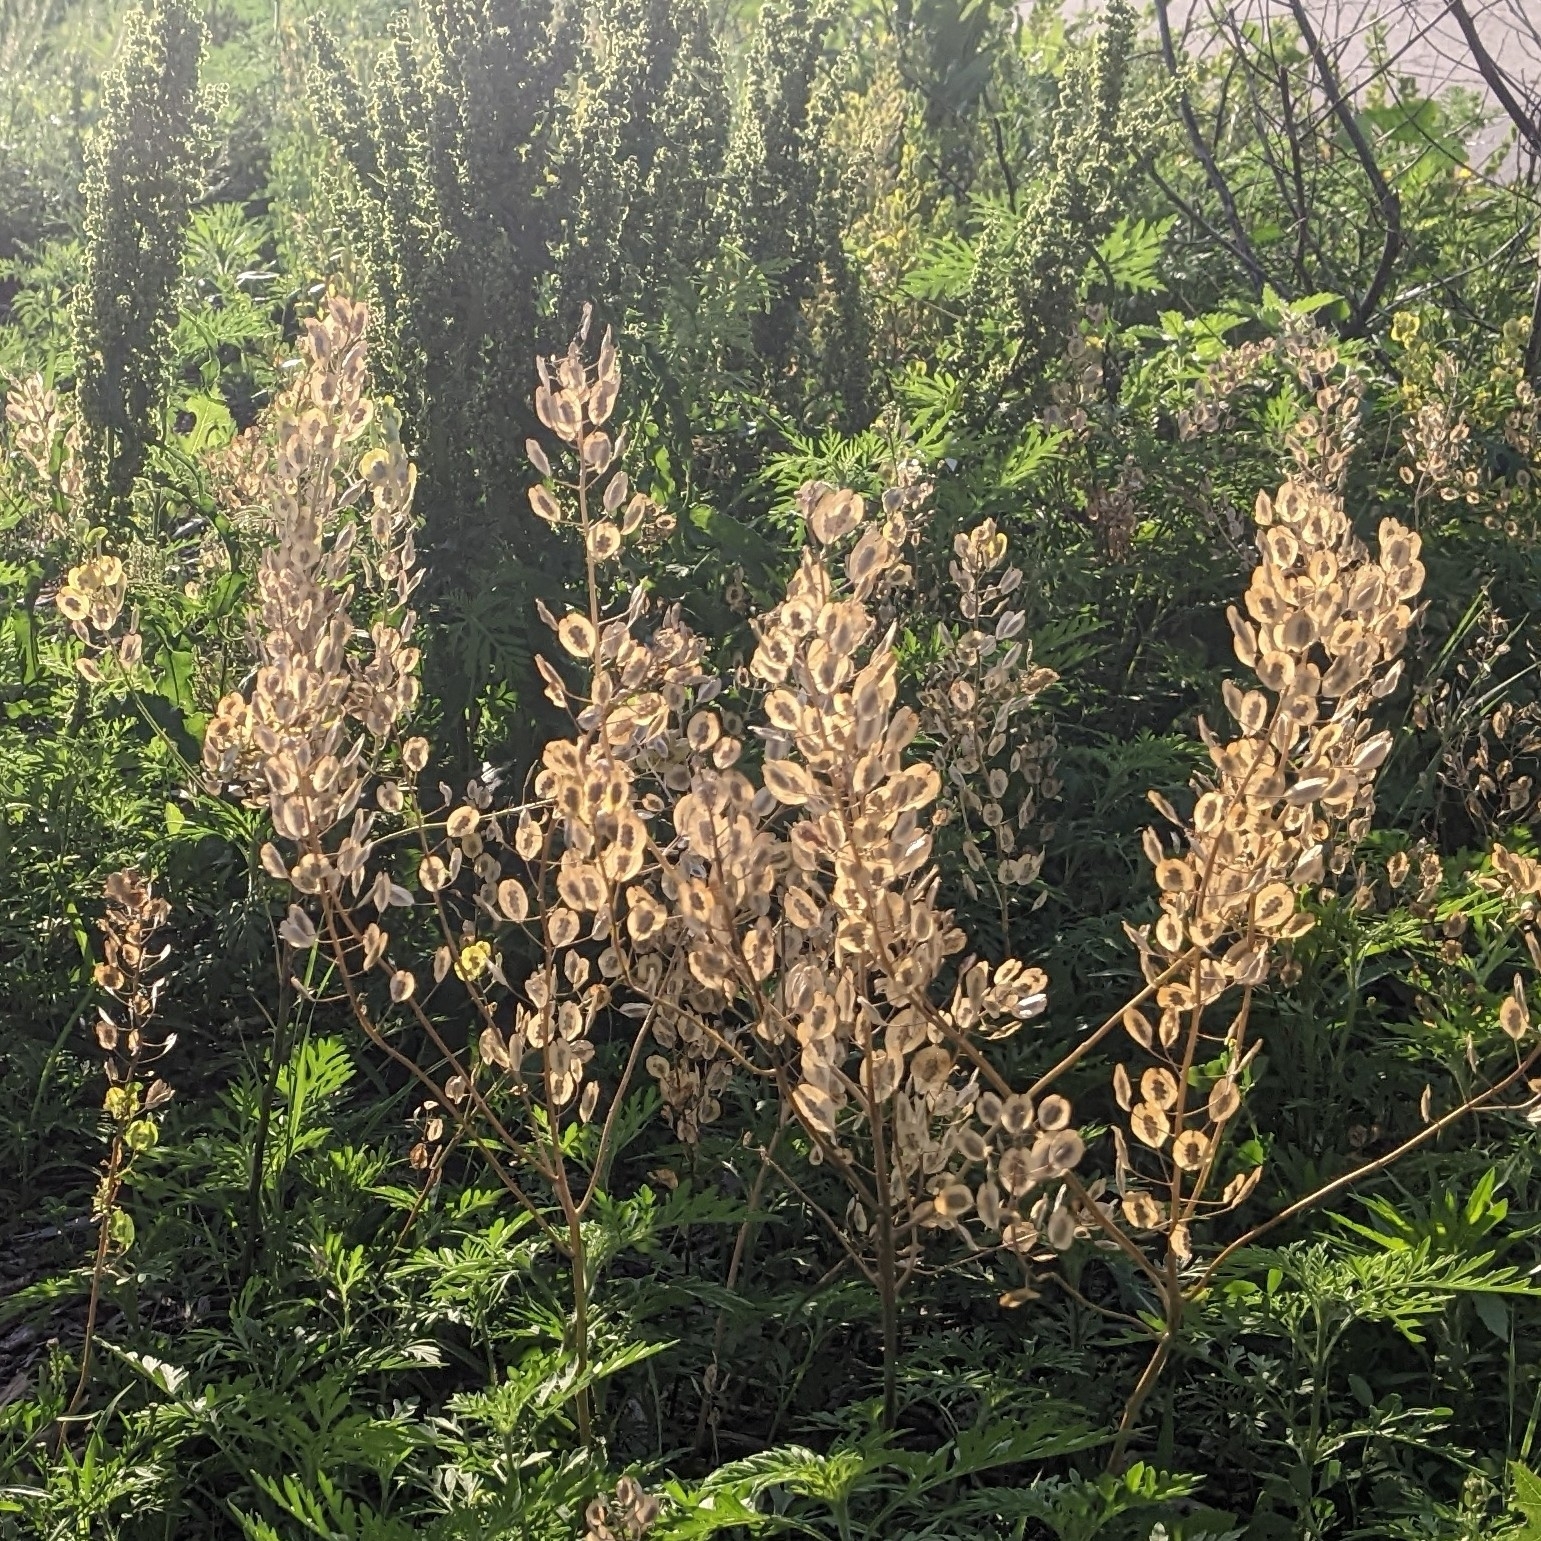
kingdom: Plantae
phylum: Tracheophyta
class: Magnoliopsida
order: Brassicales
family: Brassicaceae
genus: Thlaspi
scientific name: Thlaspi arvense
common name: Field pennycress
